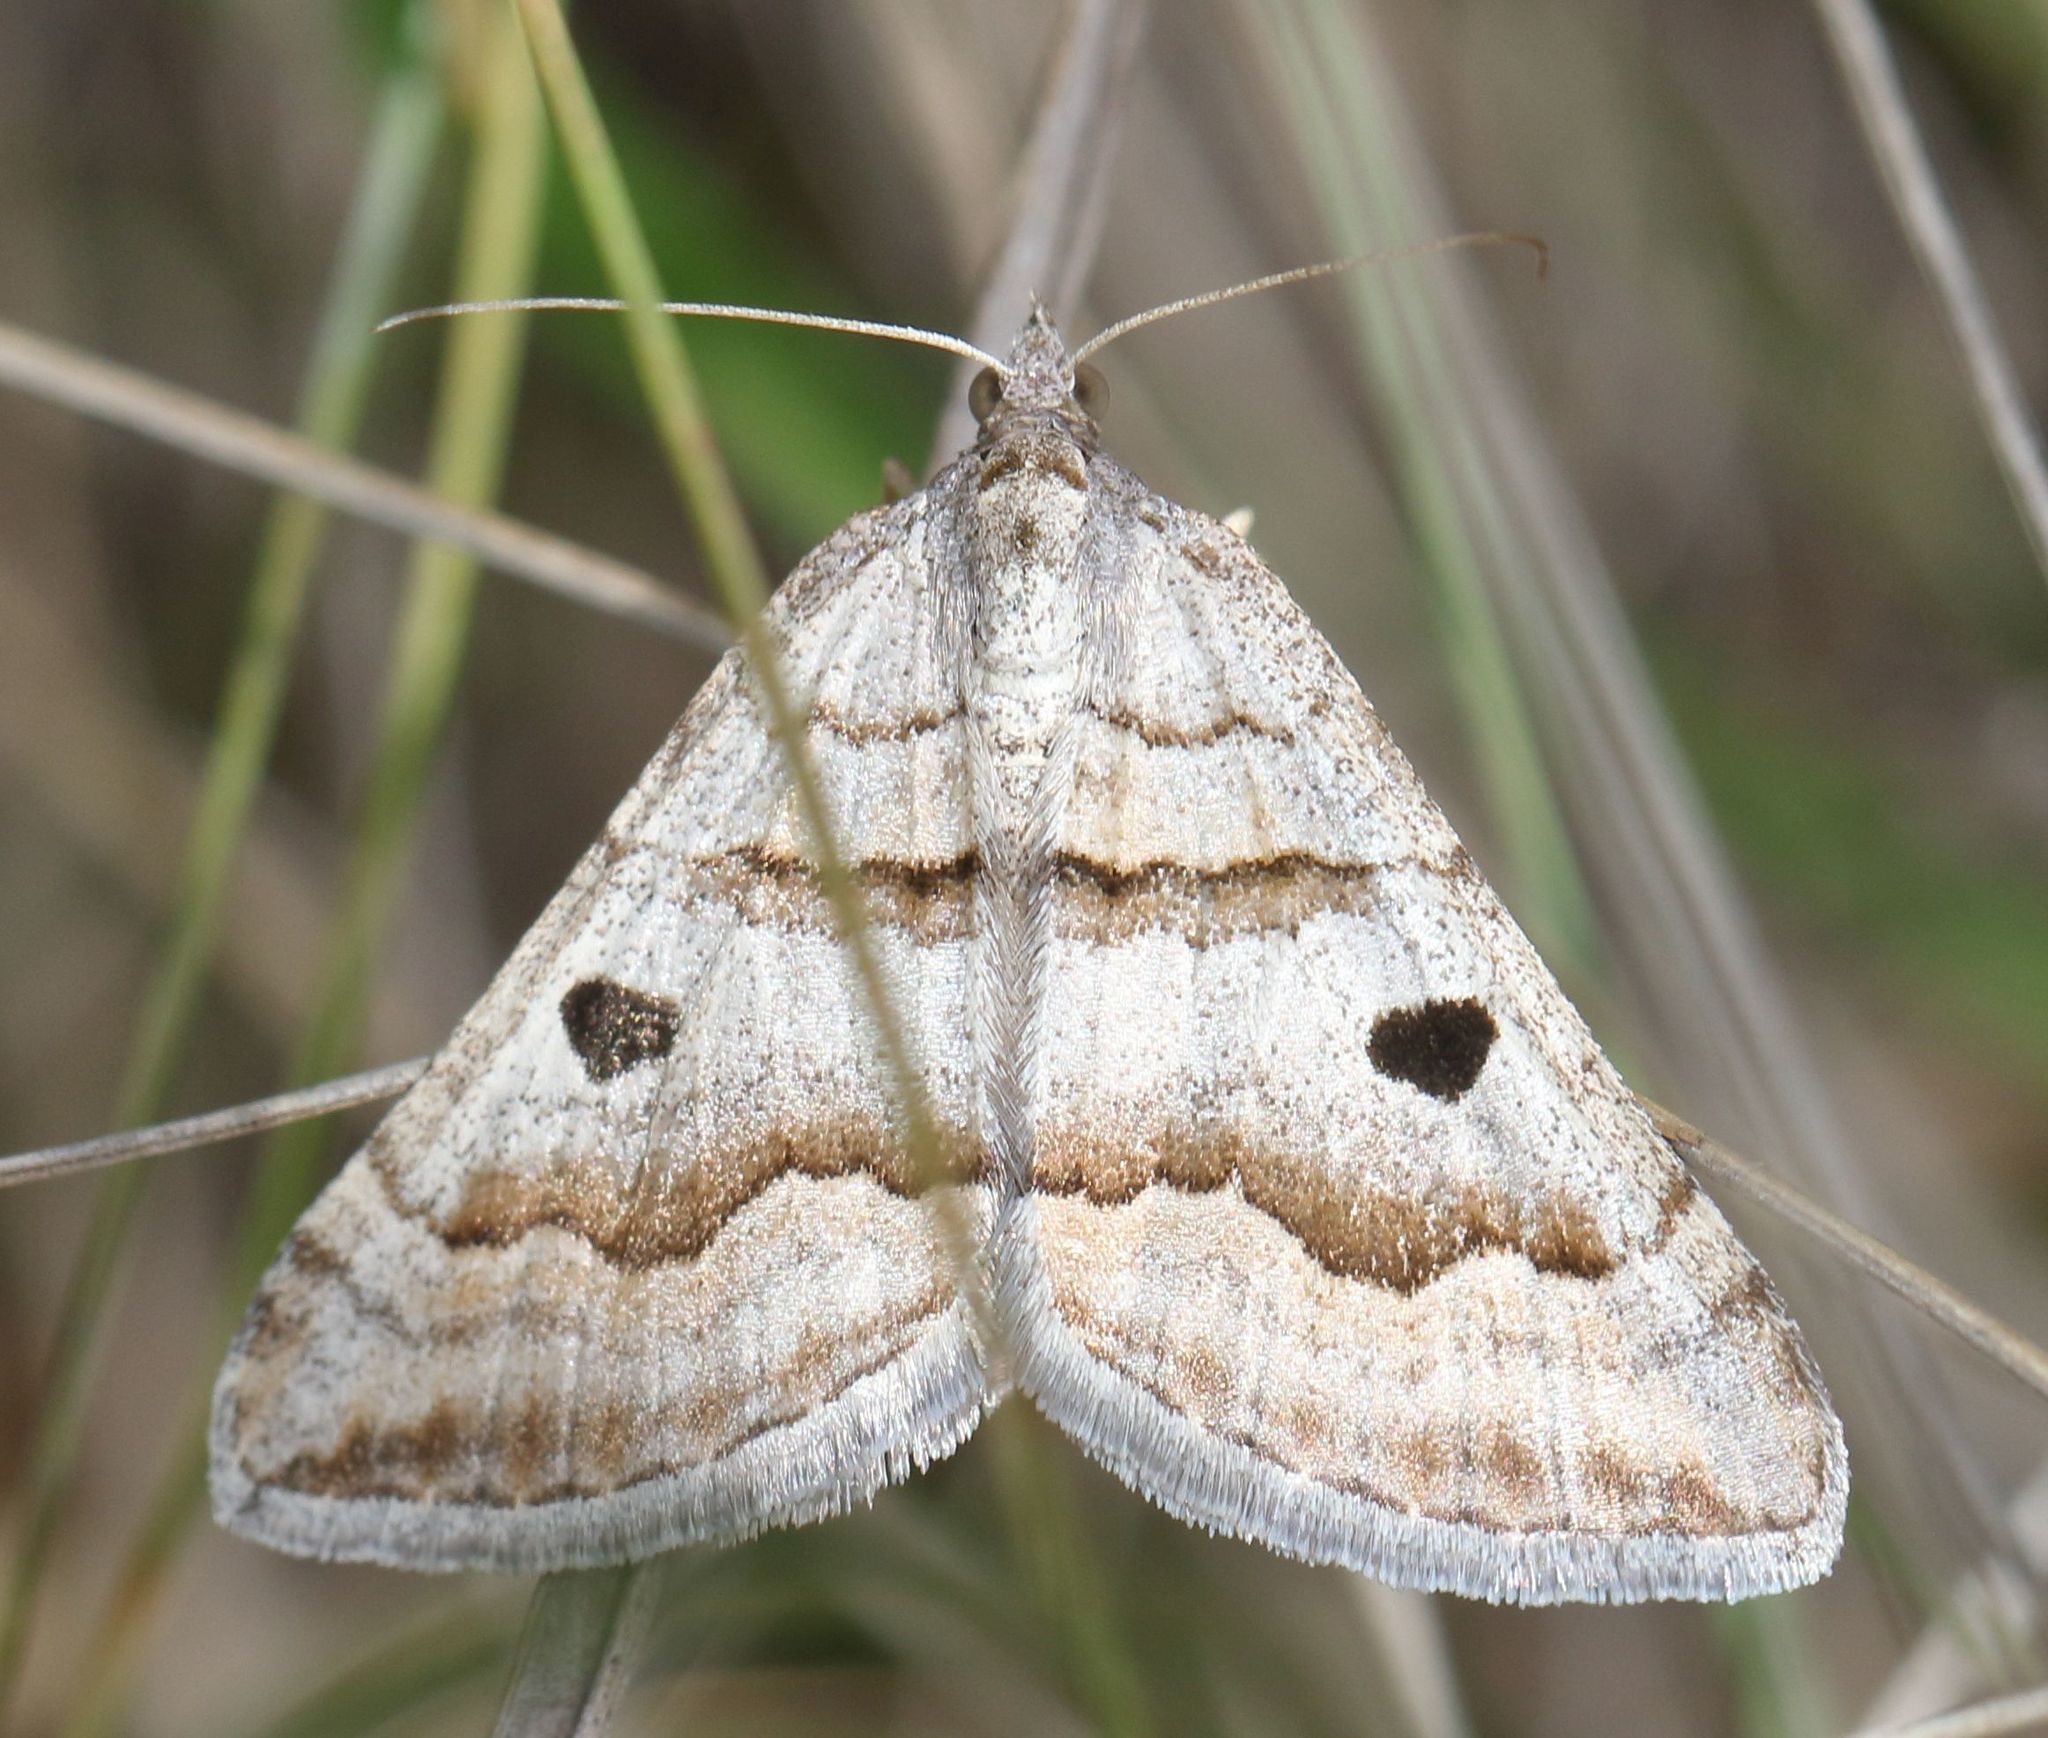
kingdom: Animalia
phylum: Arthropoda
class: Insecta
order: Lepidoptera
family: Geometridae
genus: Pseudolarentia
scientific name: Pseudolarentia megalaria
